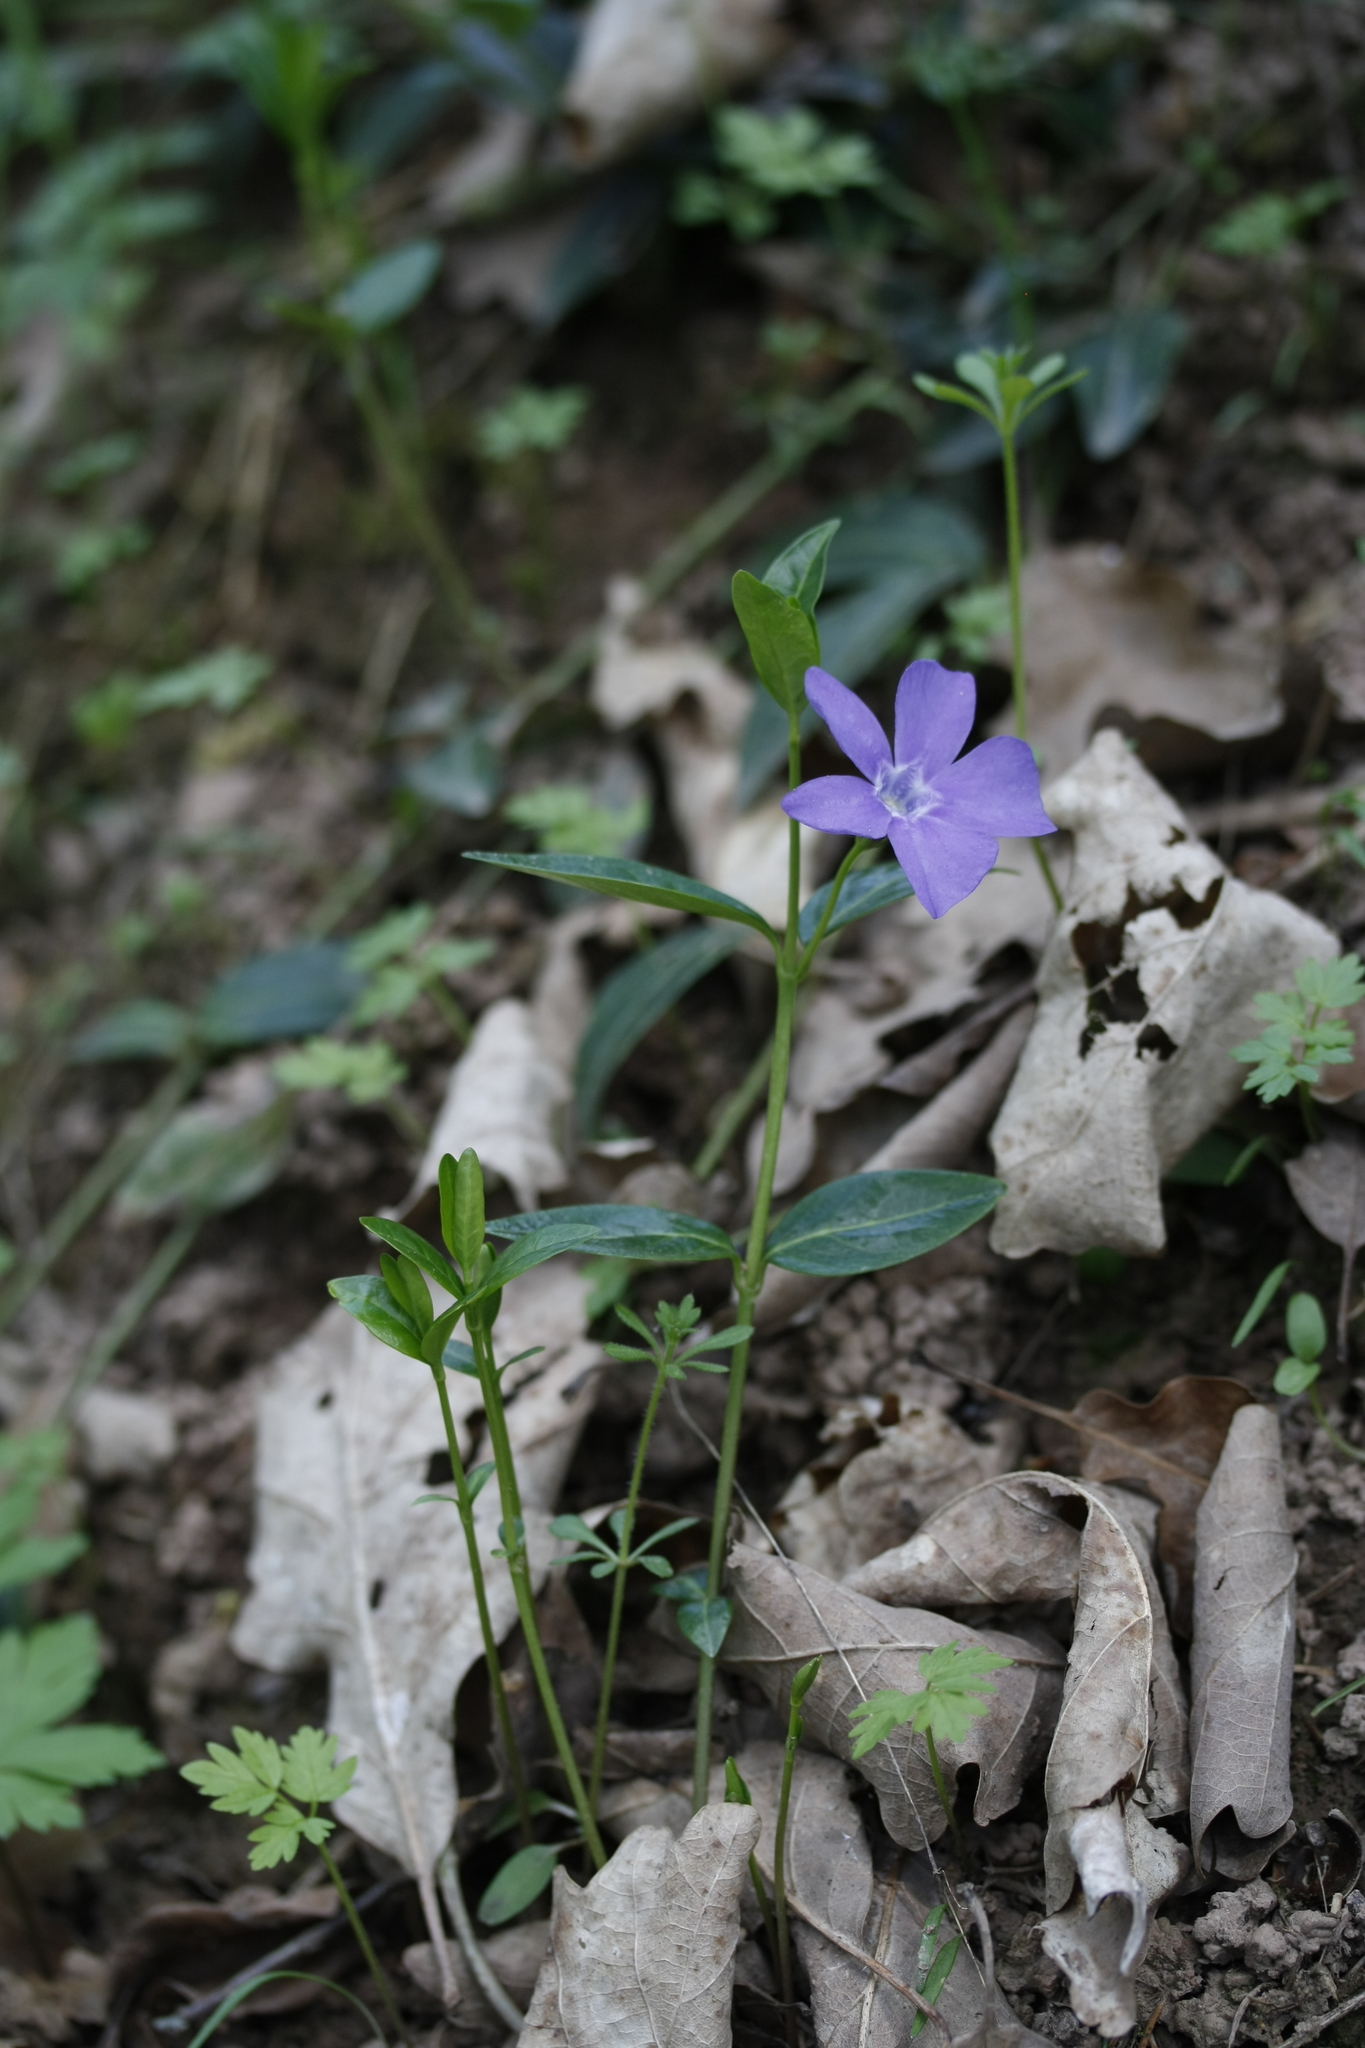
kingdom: Plantae
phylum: Tracheophyta
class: Magnoliopsida
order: Gentianales
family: Apocynaceae
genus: Vinca
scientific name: Vinca minor
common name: Lesser periwinkle
